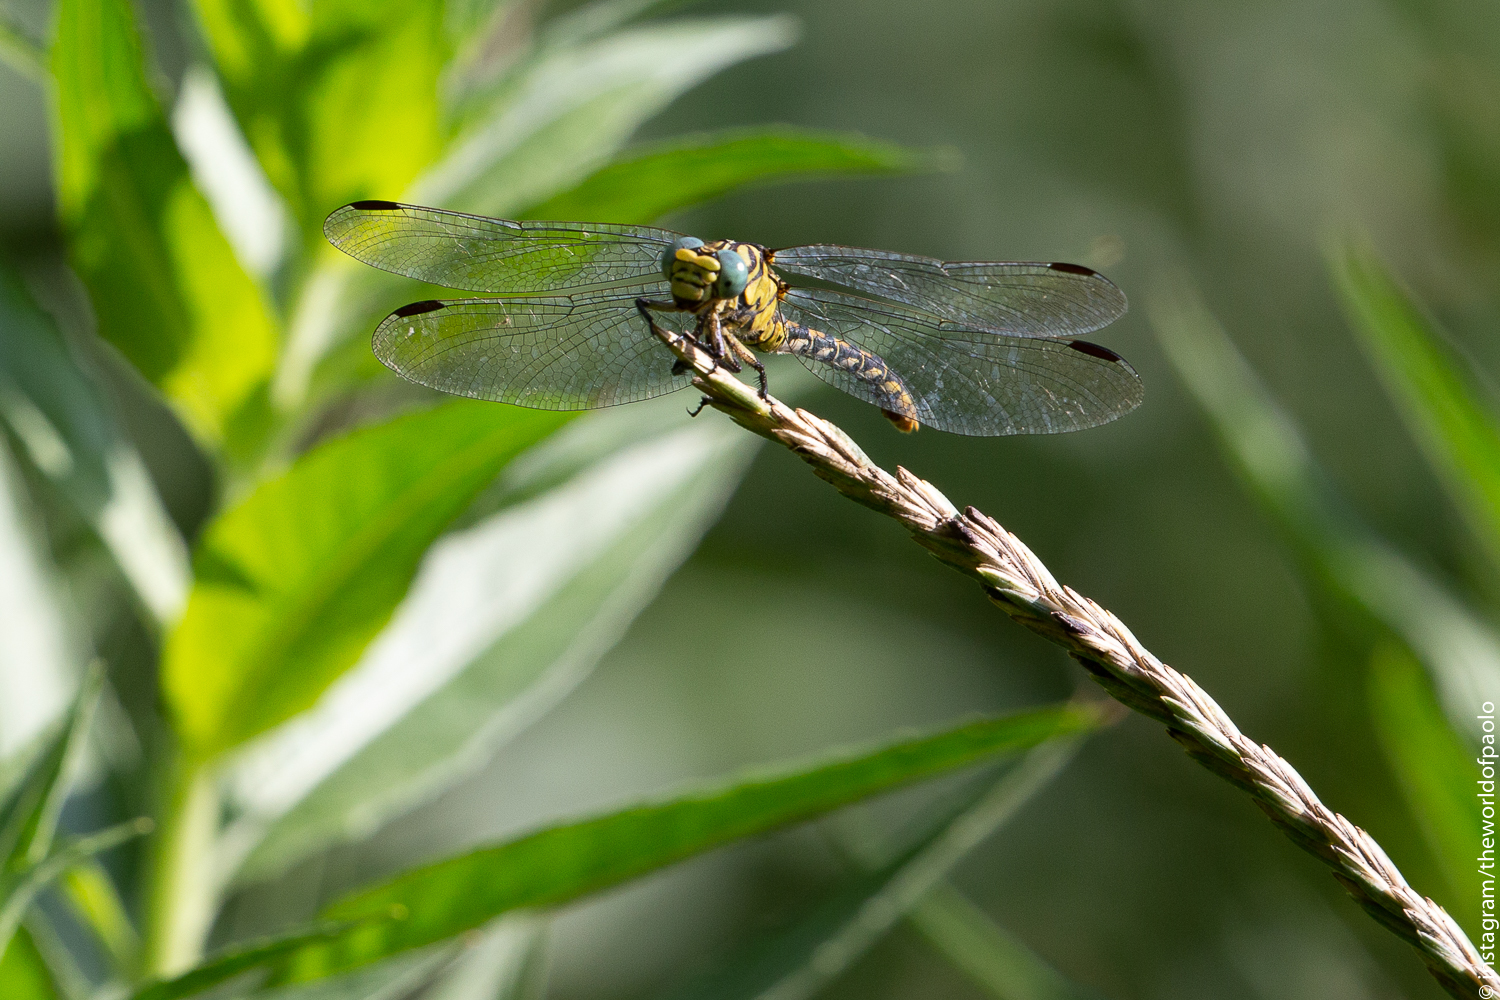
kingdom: Animalia
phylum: Arthropoda
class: Insecta
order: Odonata
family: Gomphidae
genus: Onychogomphus
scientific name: Onychogomphus forcipatus
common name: Small pincertail
